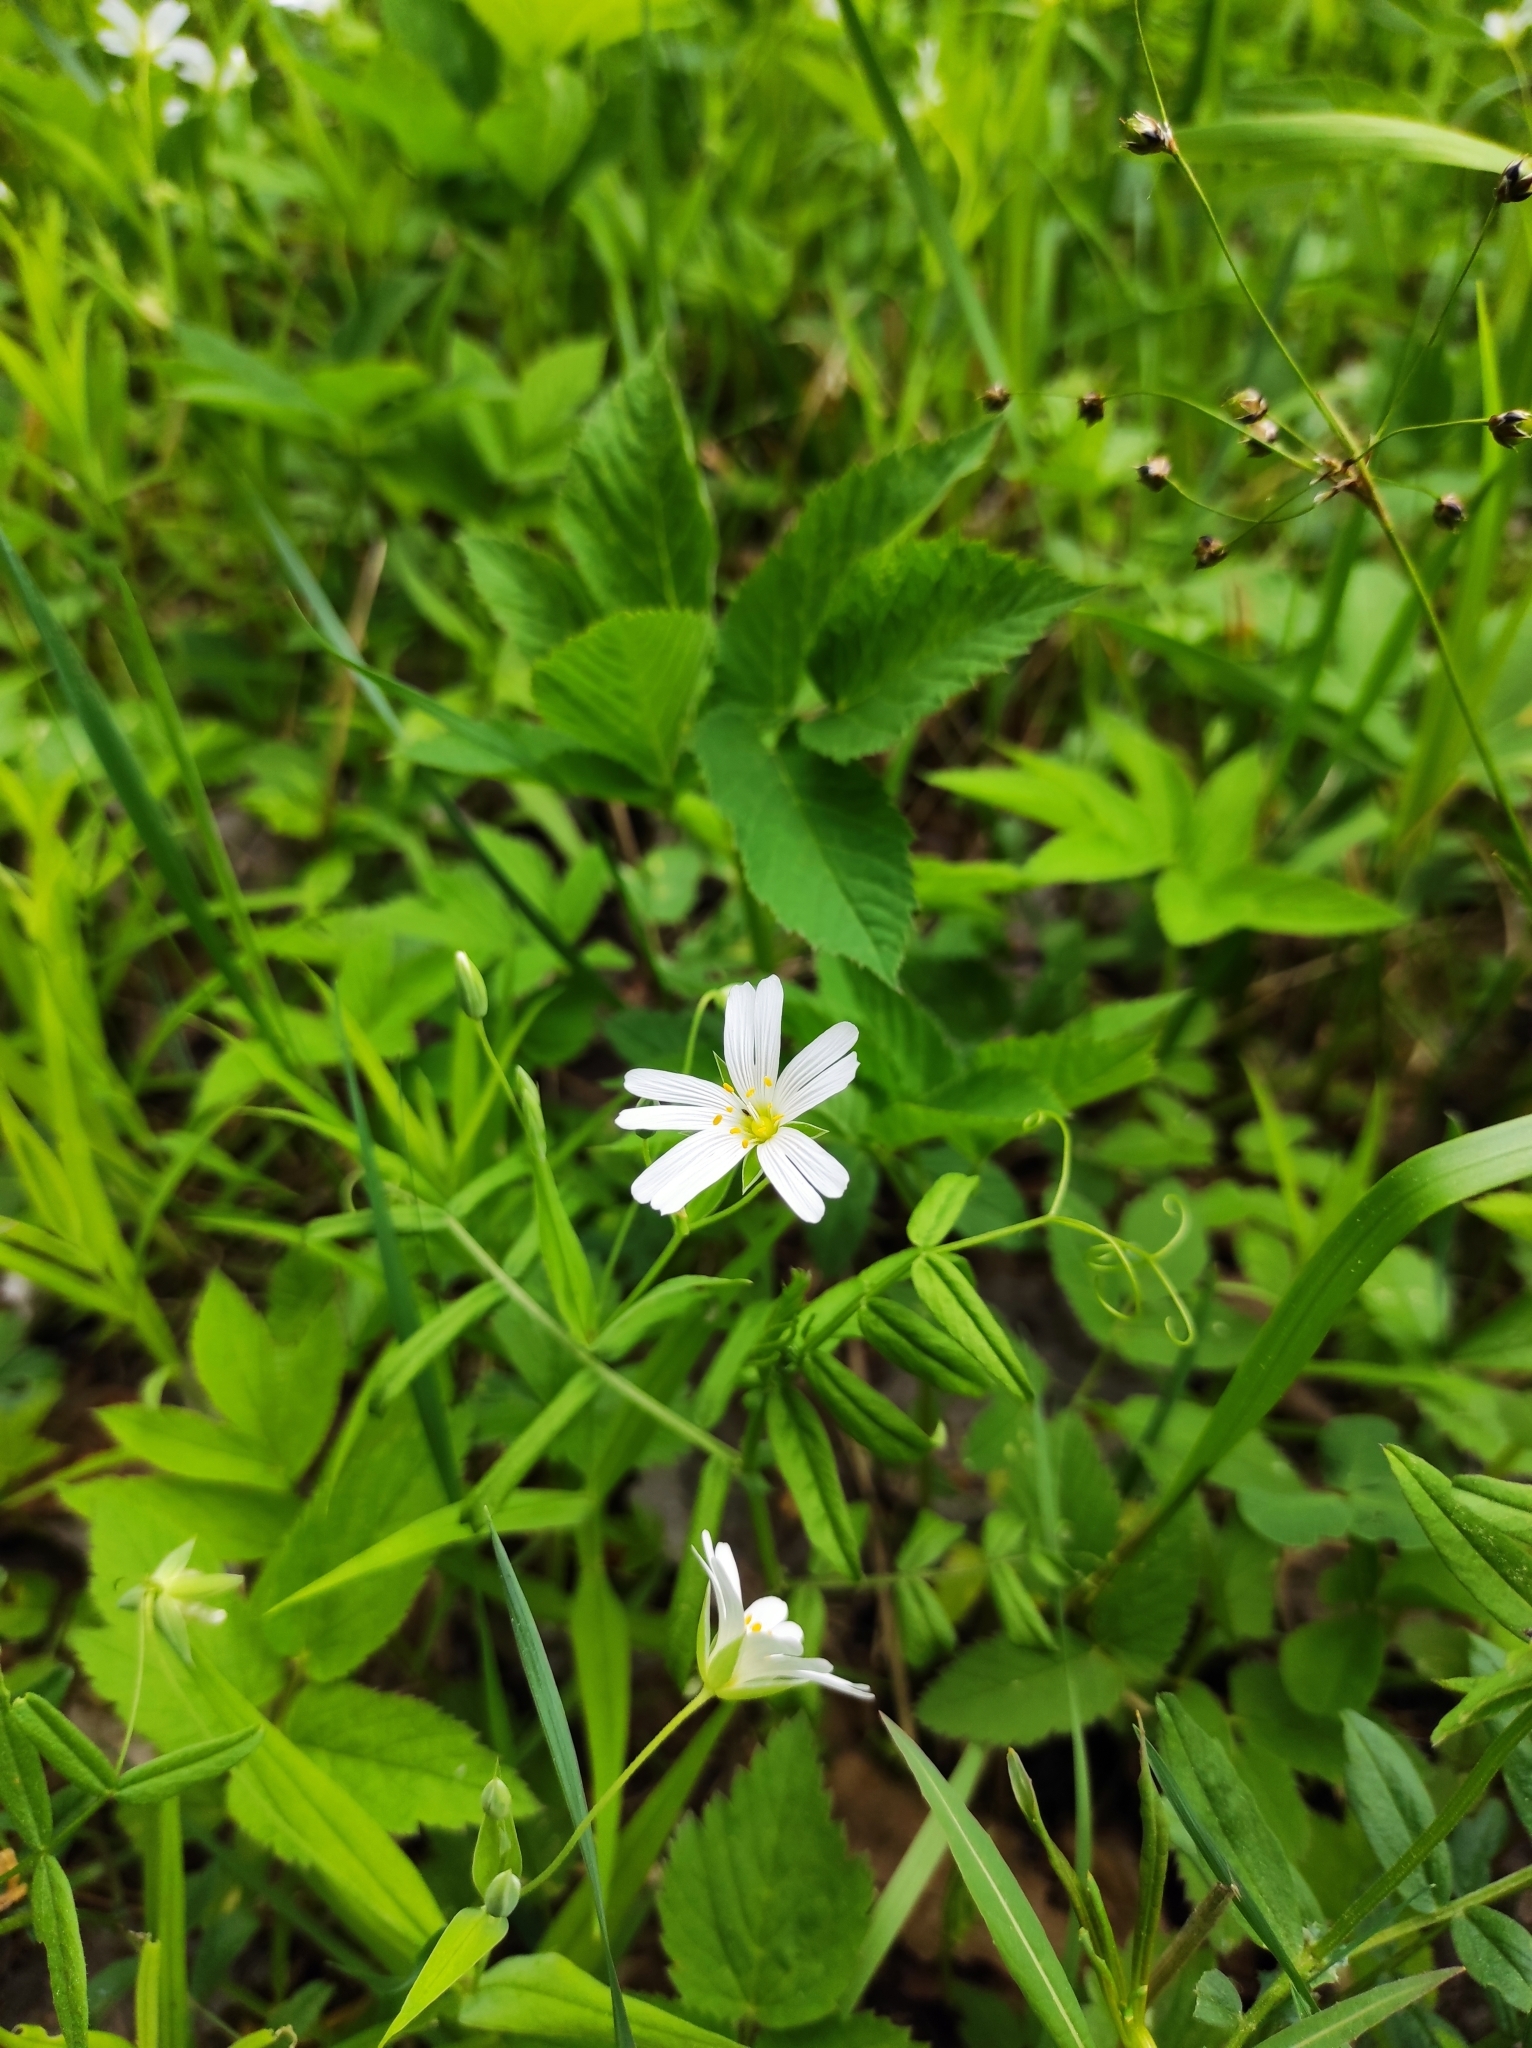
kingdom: Plantae
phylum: Tracheophyta
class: Magnoliopsida
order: Caryophyllales
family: Caryophyllaceae
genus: Rabelera
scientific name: Rabelera holostea
